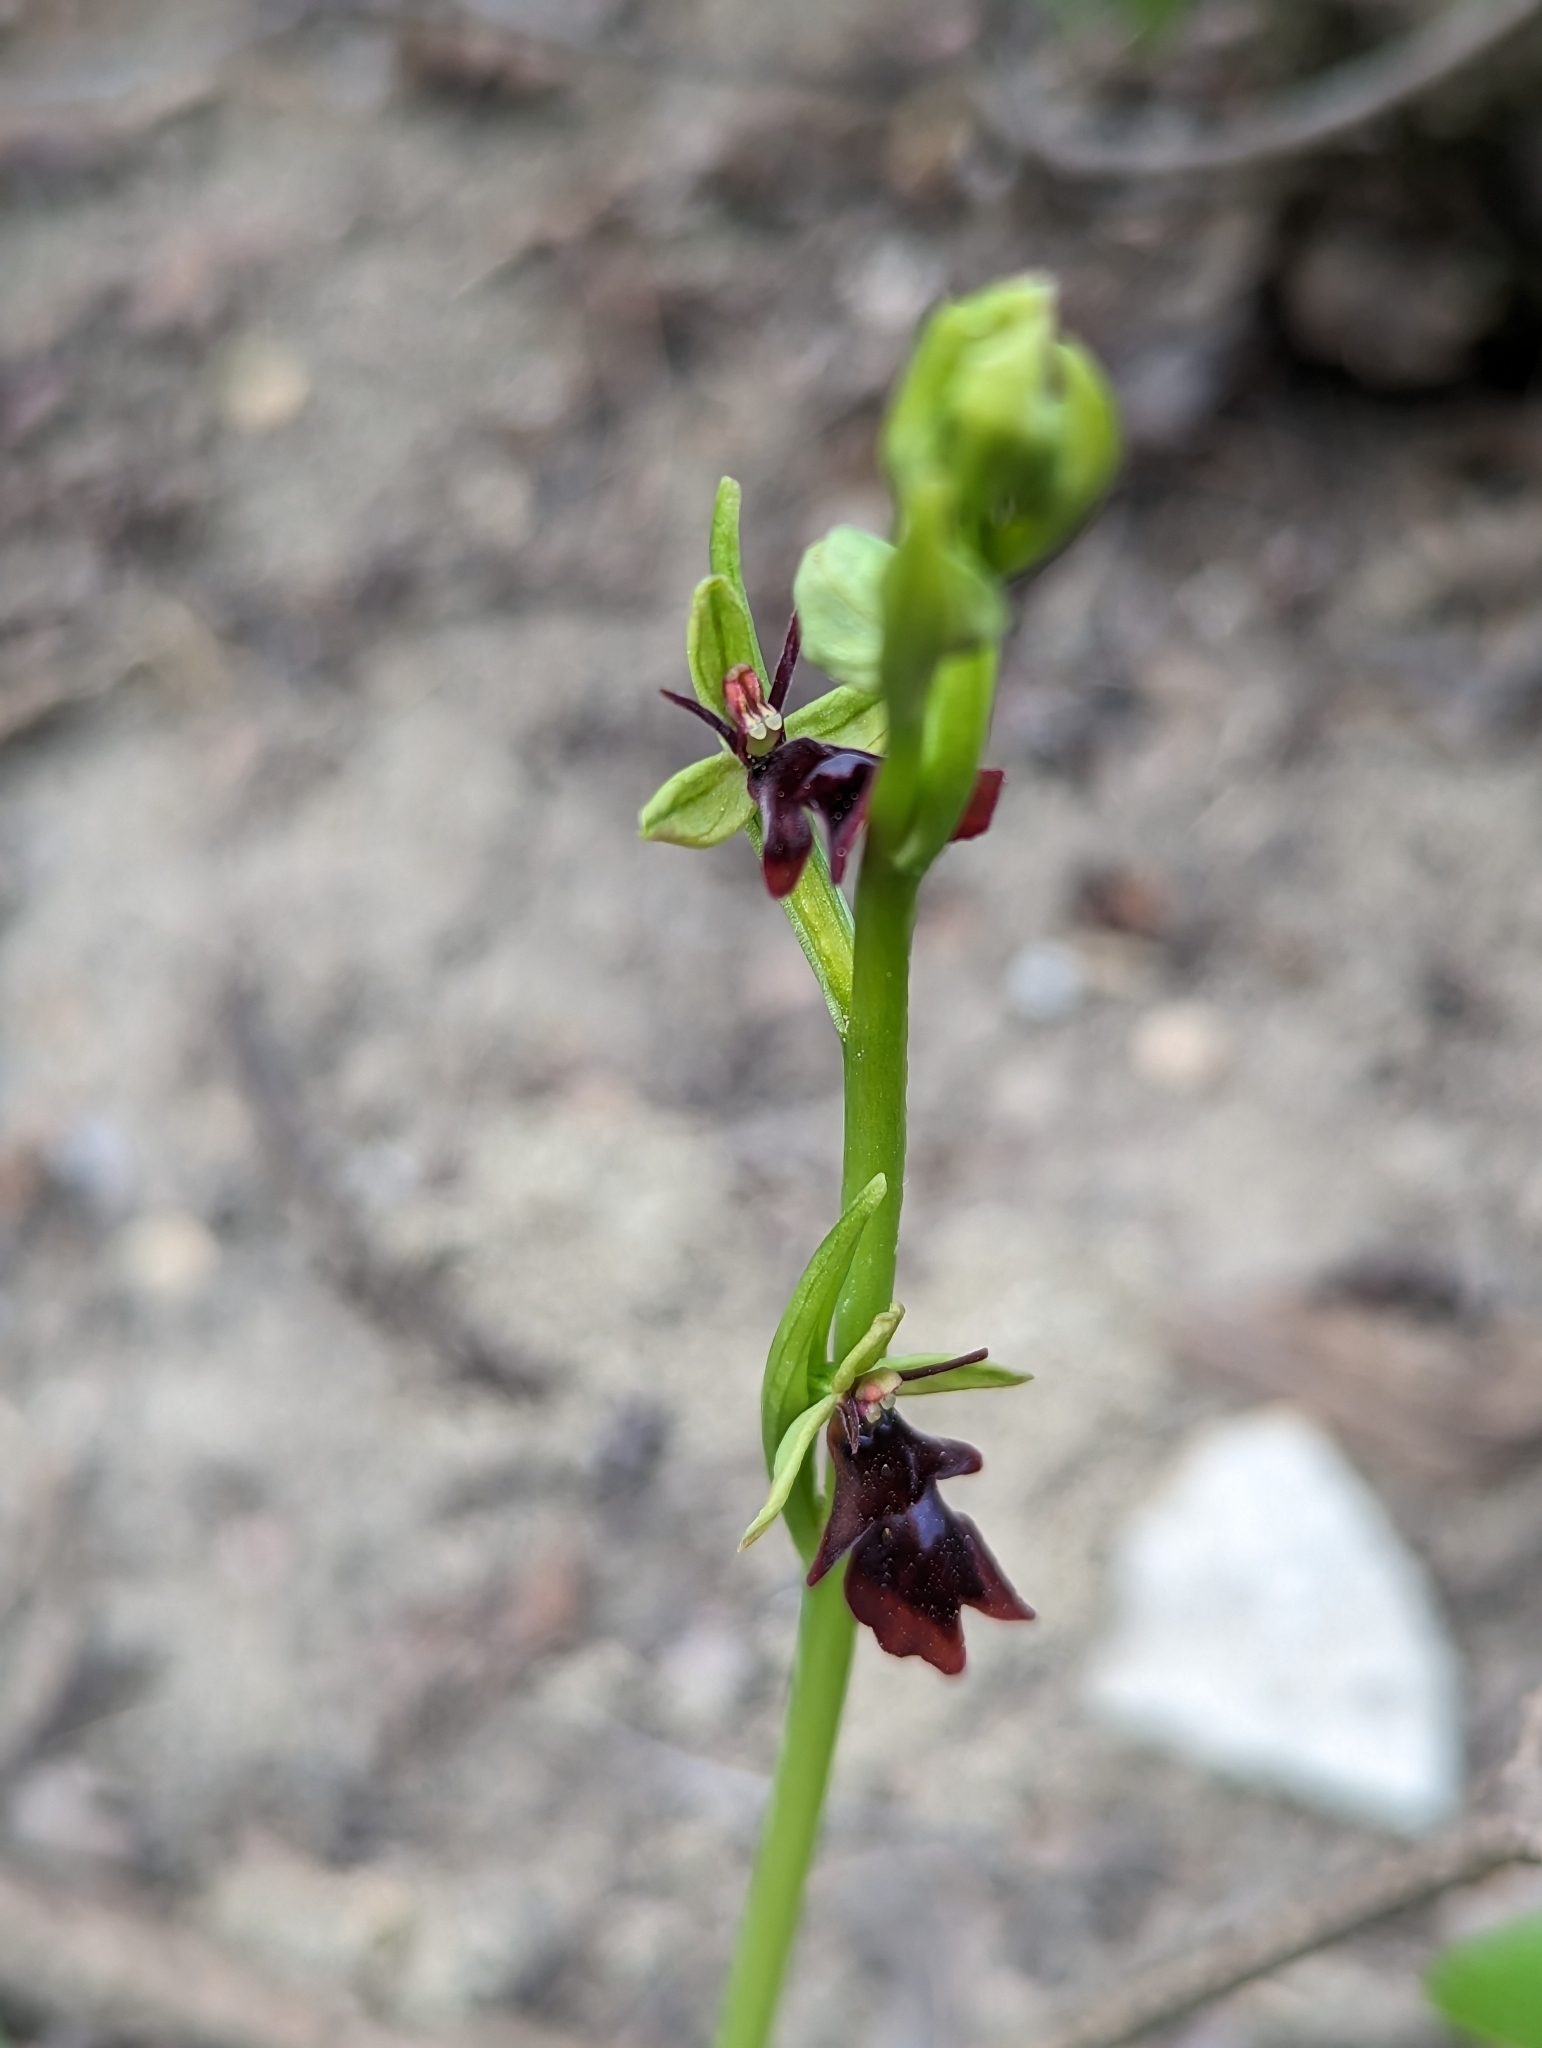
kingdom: Plantae
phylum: Tracheophyta
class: Liliopsida
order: Asparagales
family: Orchidaceae
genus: Ophrys
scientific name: Ophrys insectifera
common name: Fly orchid
